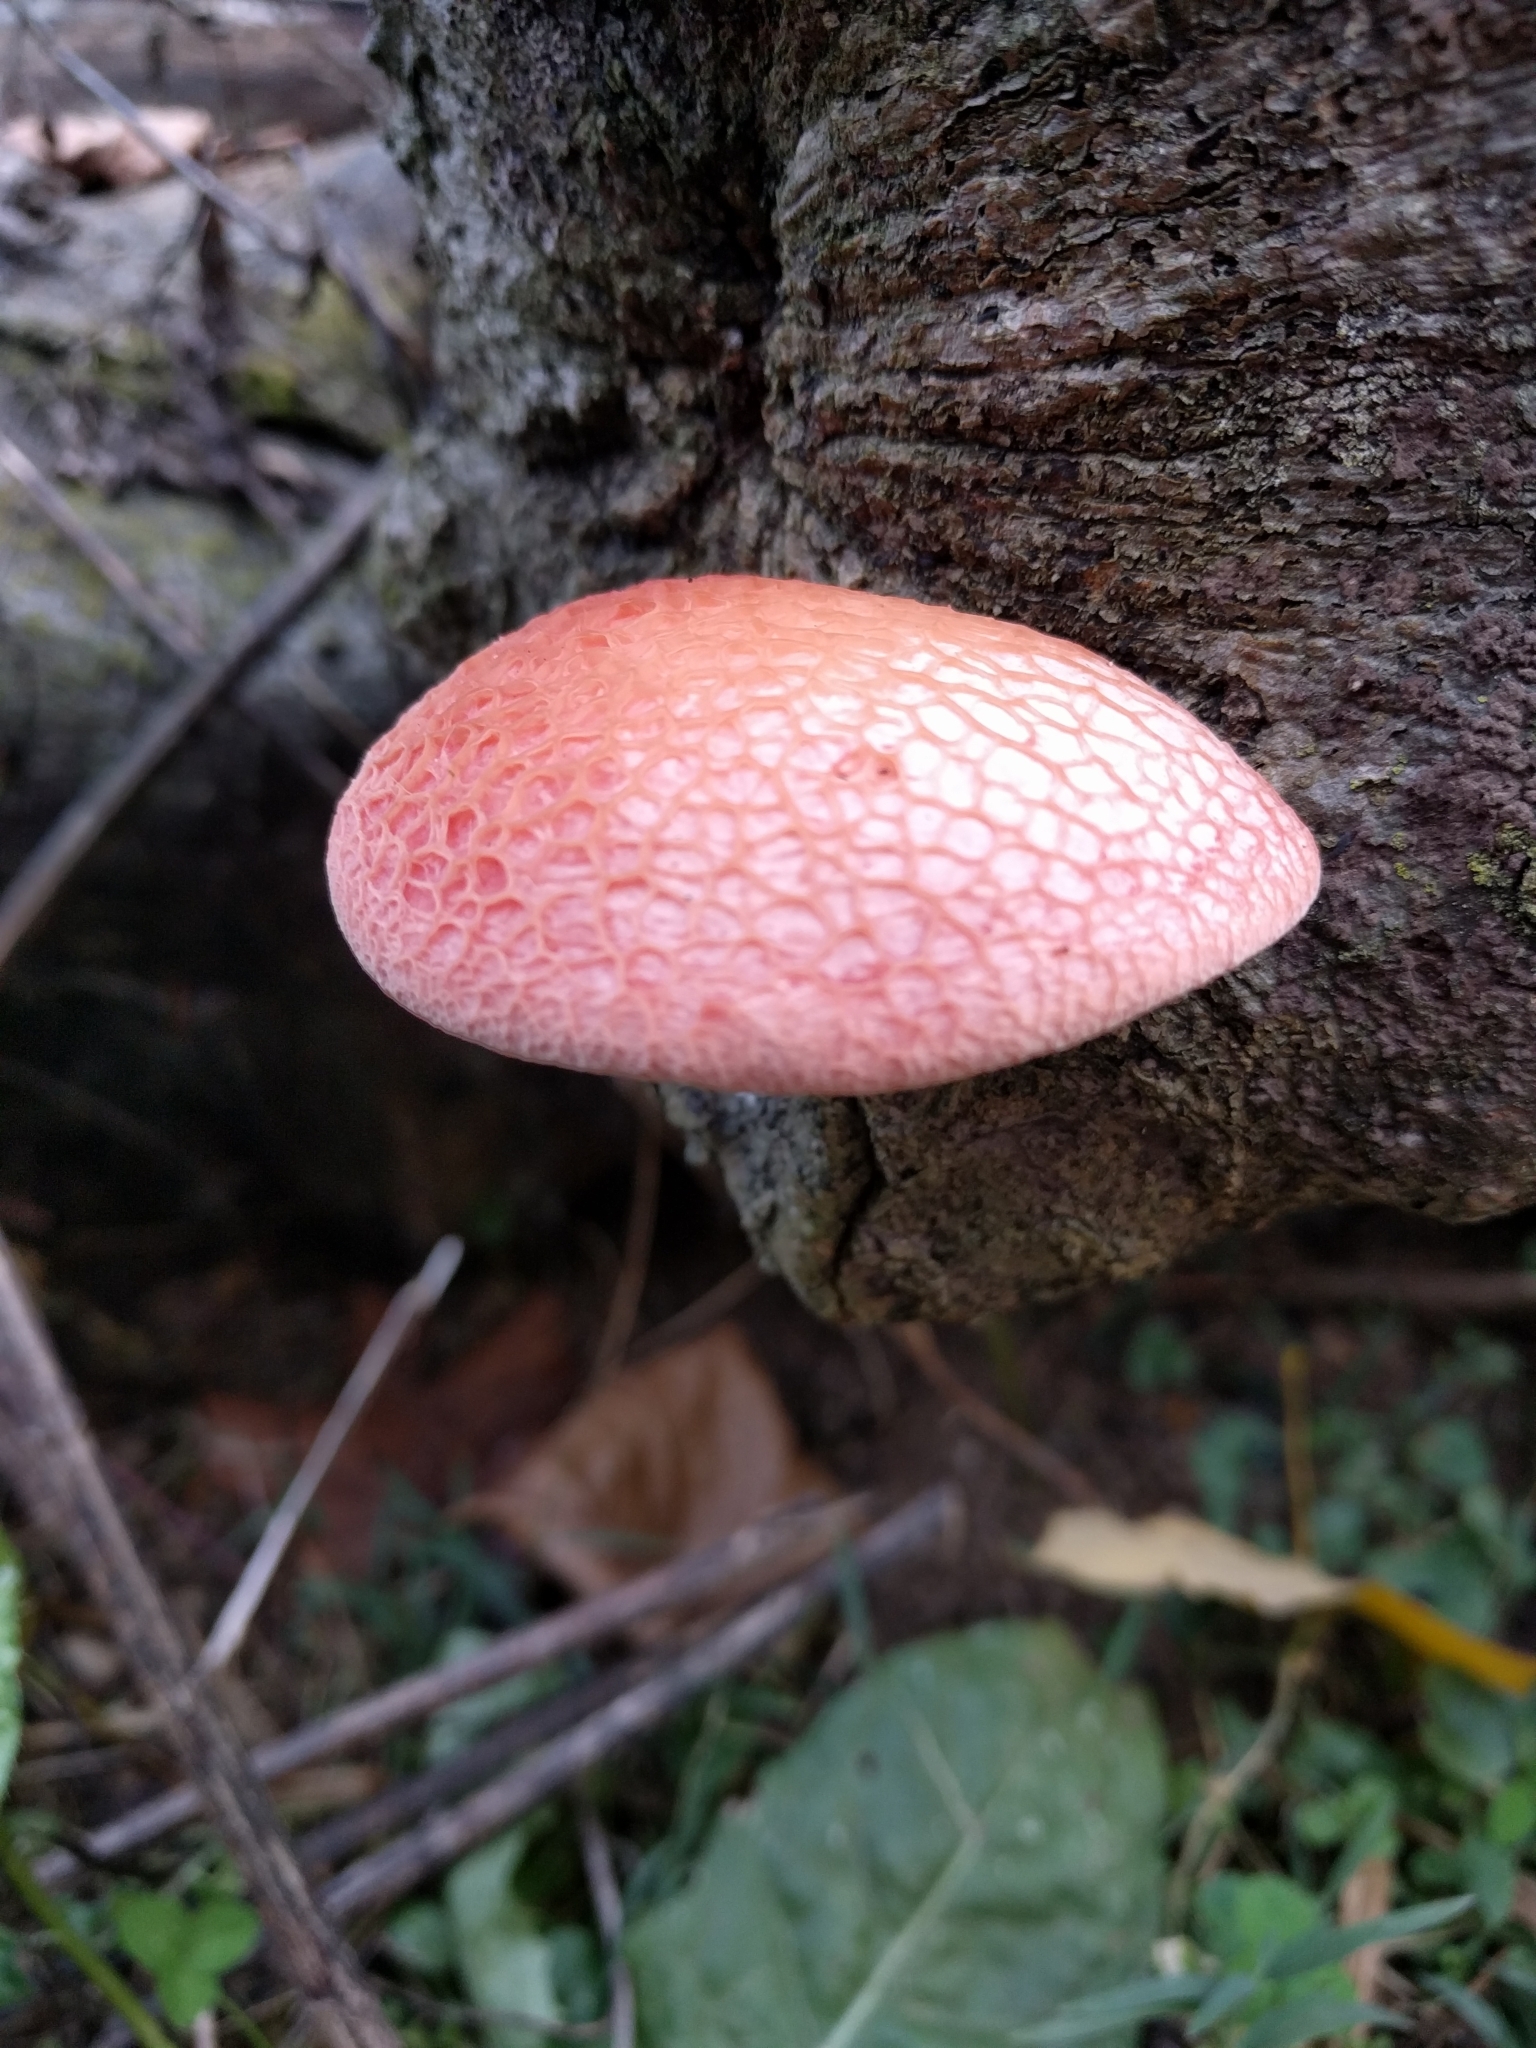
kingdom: Fungi
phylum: Basidiomycota
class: Agaricomycetes
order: Agaricales
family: Physalacriaceae
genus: Rhodotus
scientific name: Rhodotus palmatus
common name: Wrinkled peach
